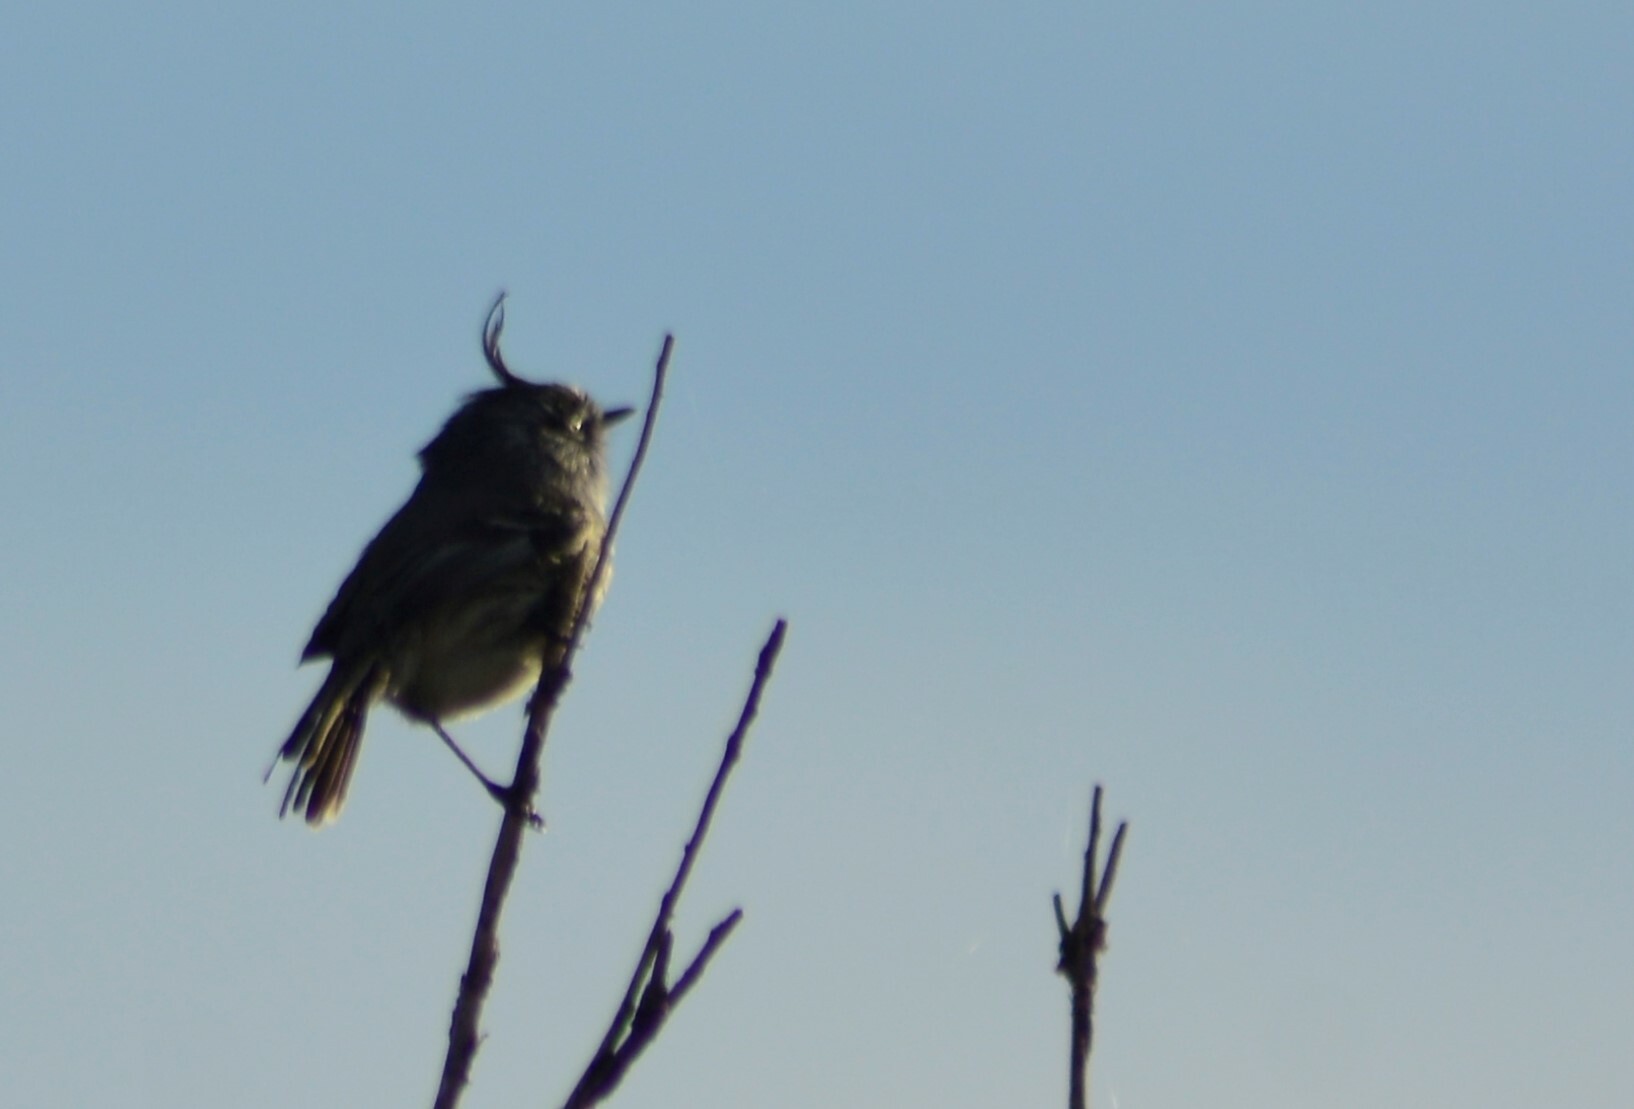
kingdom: Animalia
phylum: Chordata
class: Aves
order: Passeriformes
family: Tyrannidae
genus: Anairetes
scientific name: Anairetes parulus
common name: Tufted tit-tyrant
